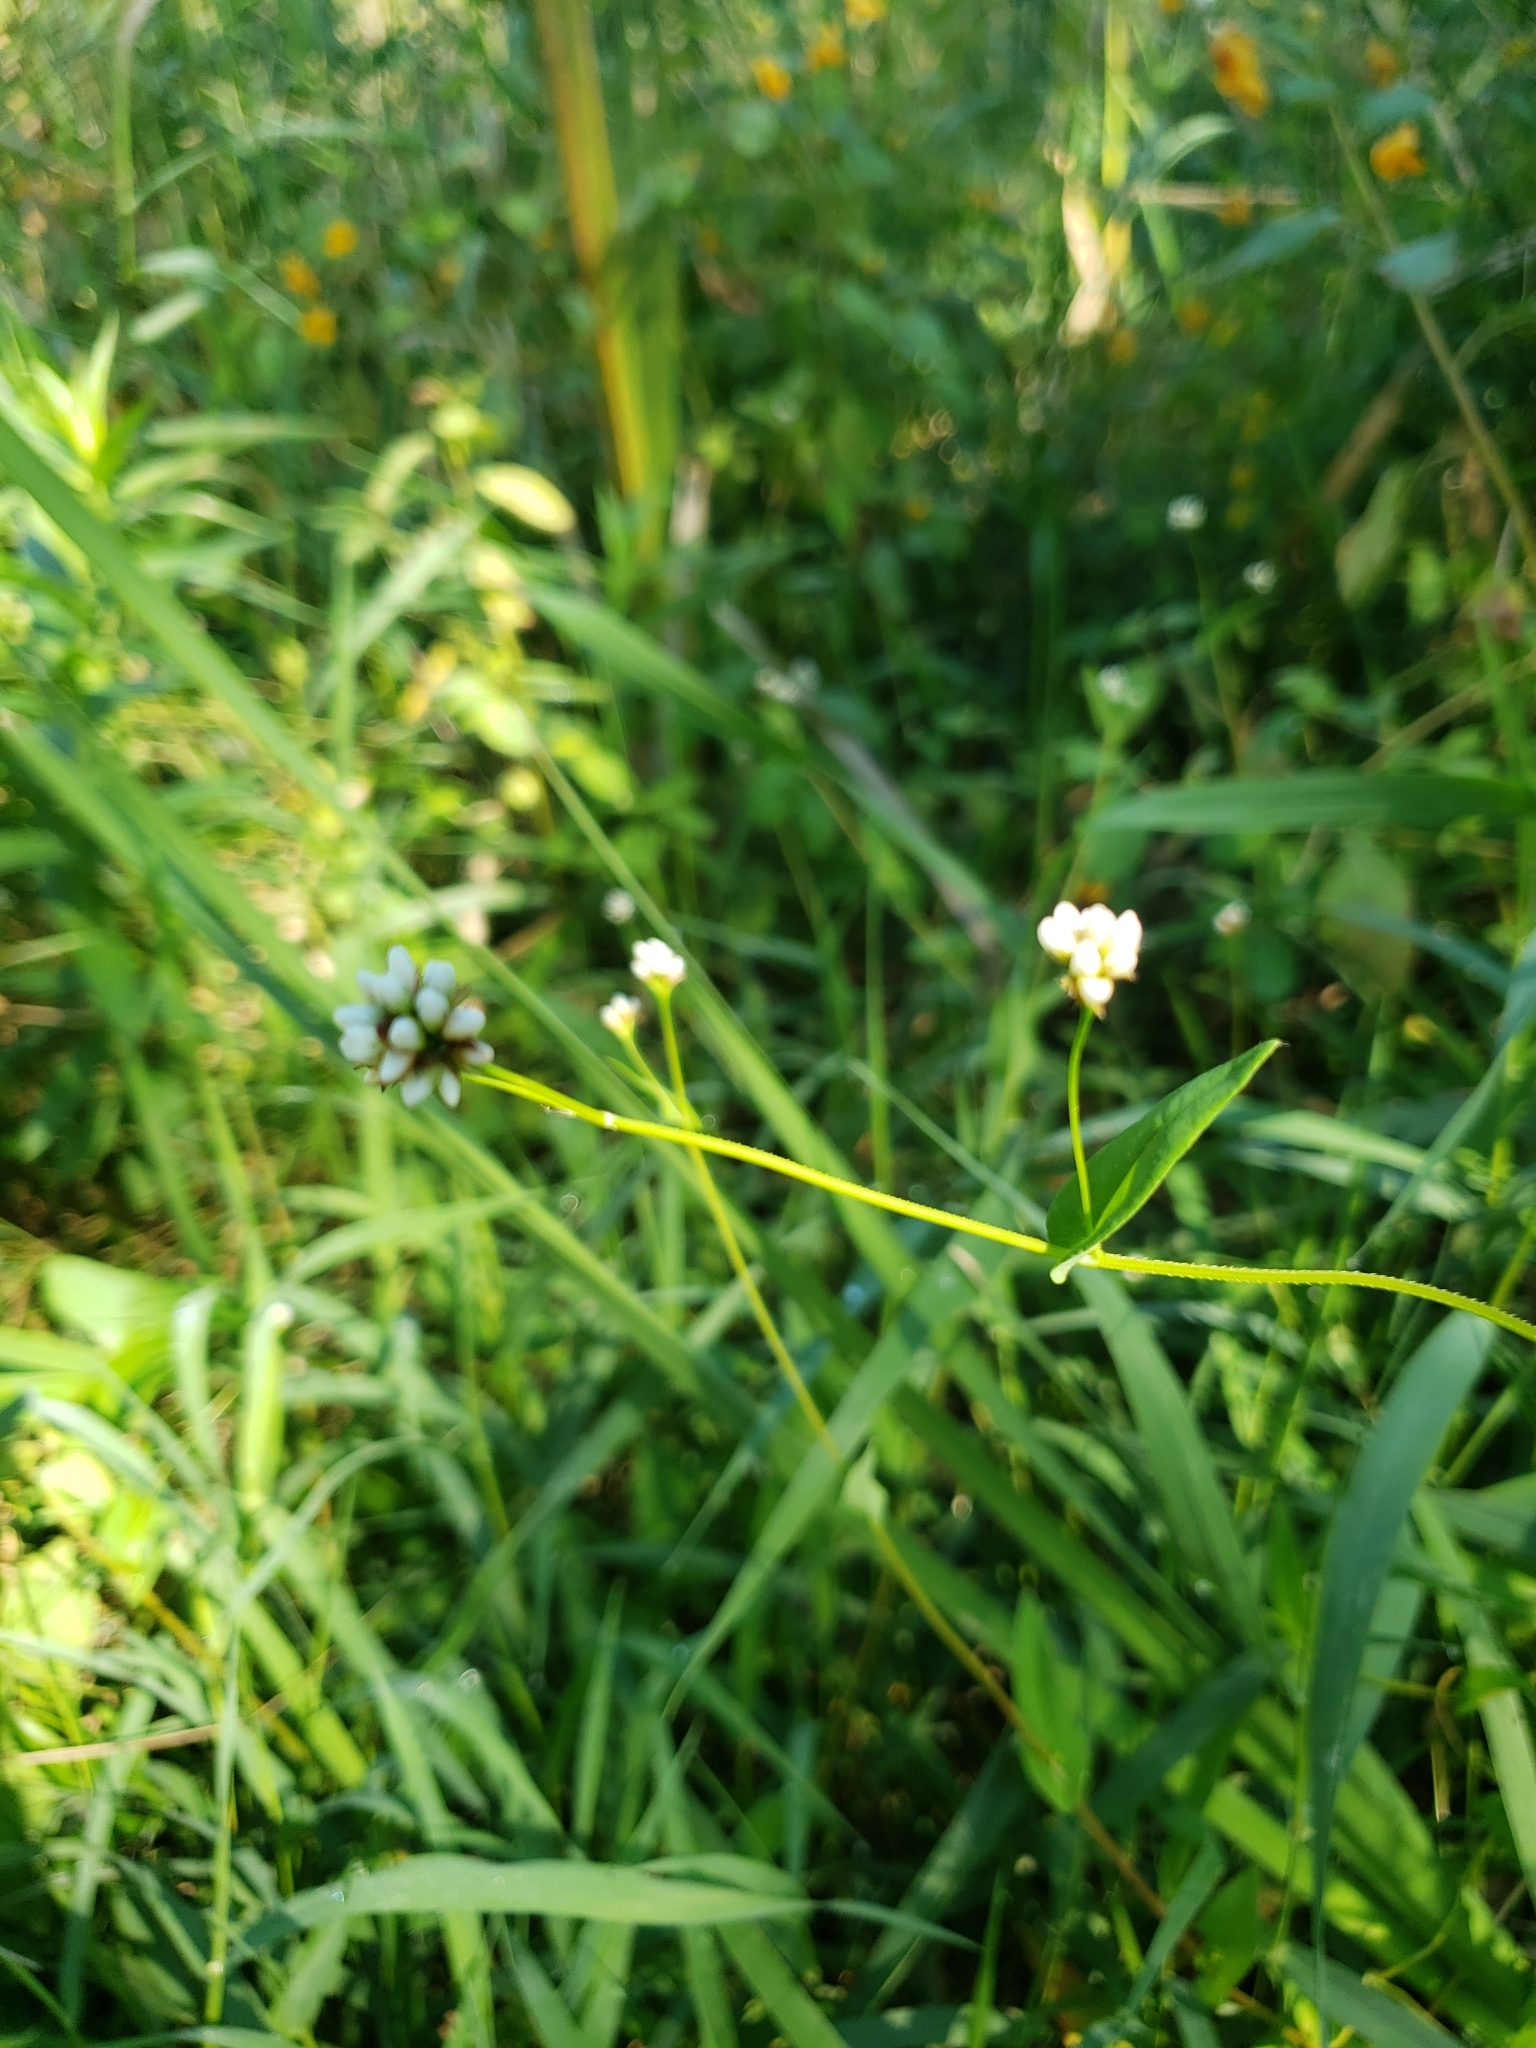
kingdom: Plantae
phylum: Tracheophyta
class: Magnoliopsida
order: Caryophyllales
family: Polygonaceae
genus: Persicaria
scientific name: Persicaria sagittata
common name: American tearthumb
